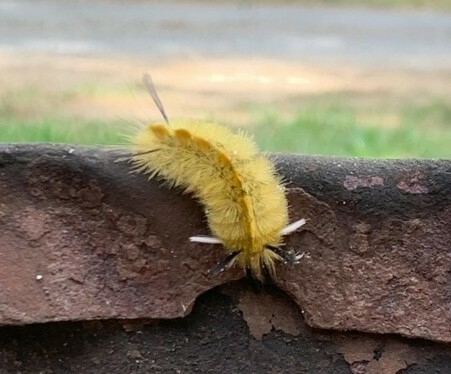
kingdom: Animalia
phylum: Arthropoda
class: Insecta
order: Lepidoptera
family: Erebidae
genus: Halysidota
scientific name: Halysidota tessellaris
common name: Banded tussock moth
